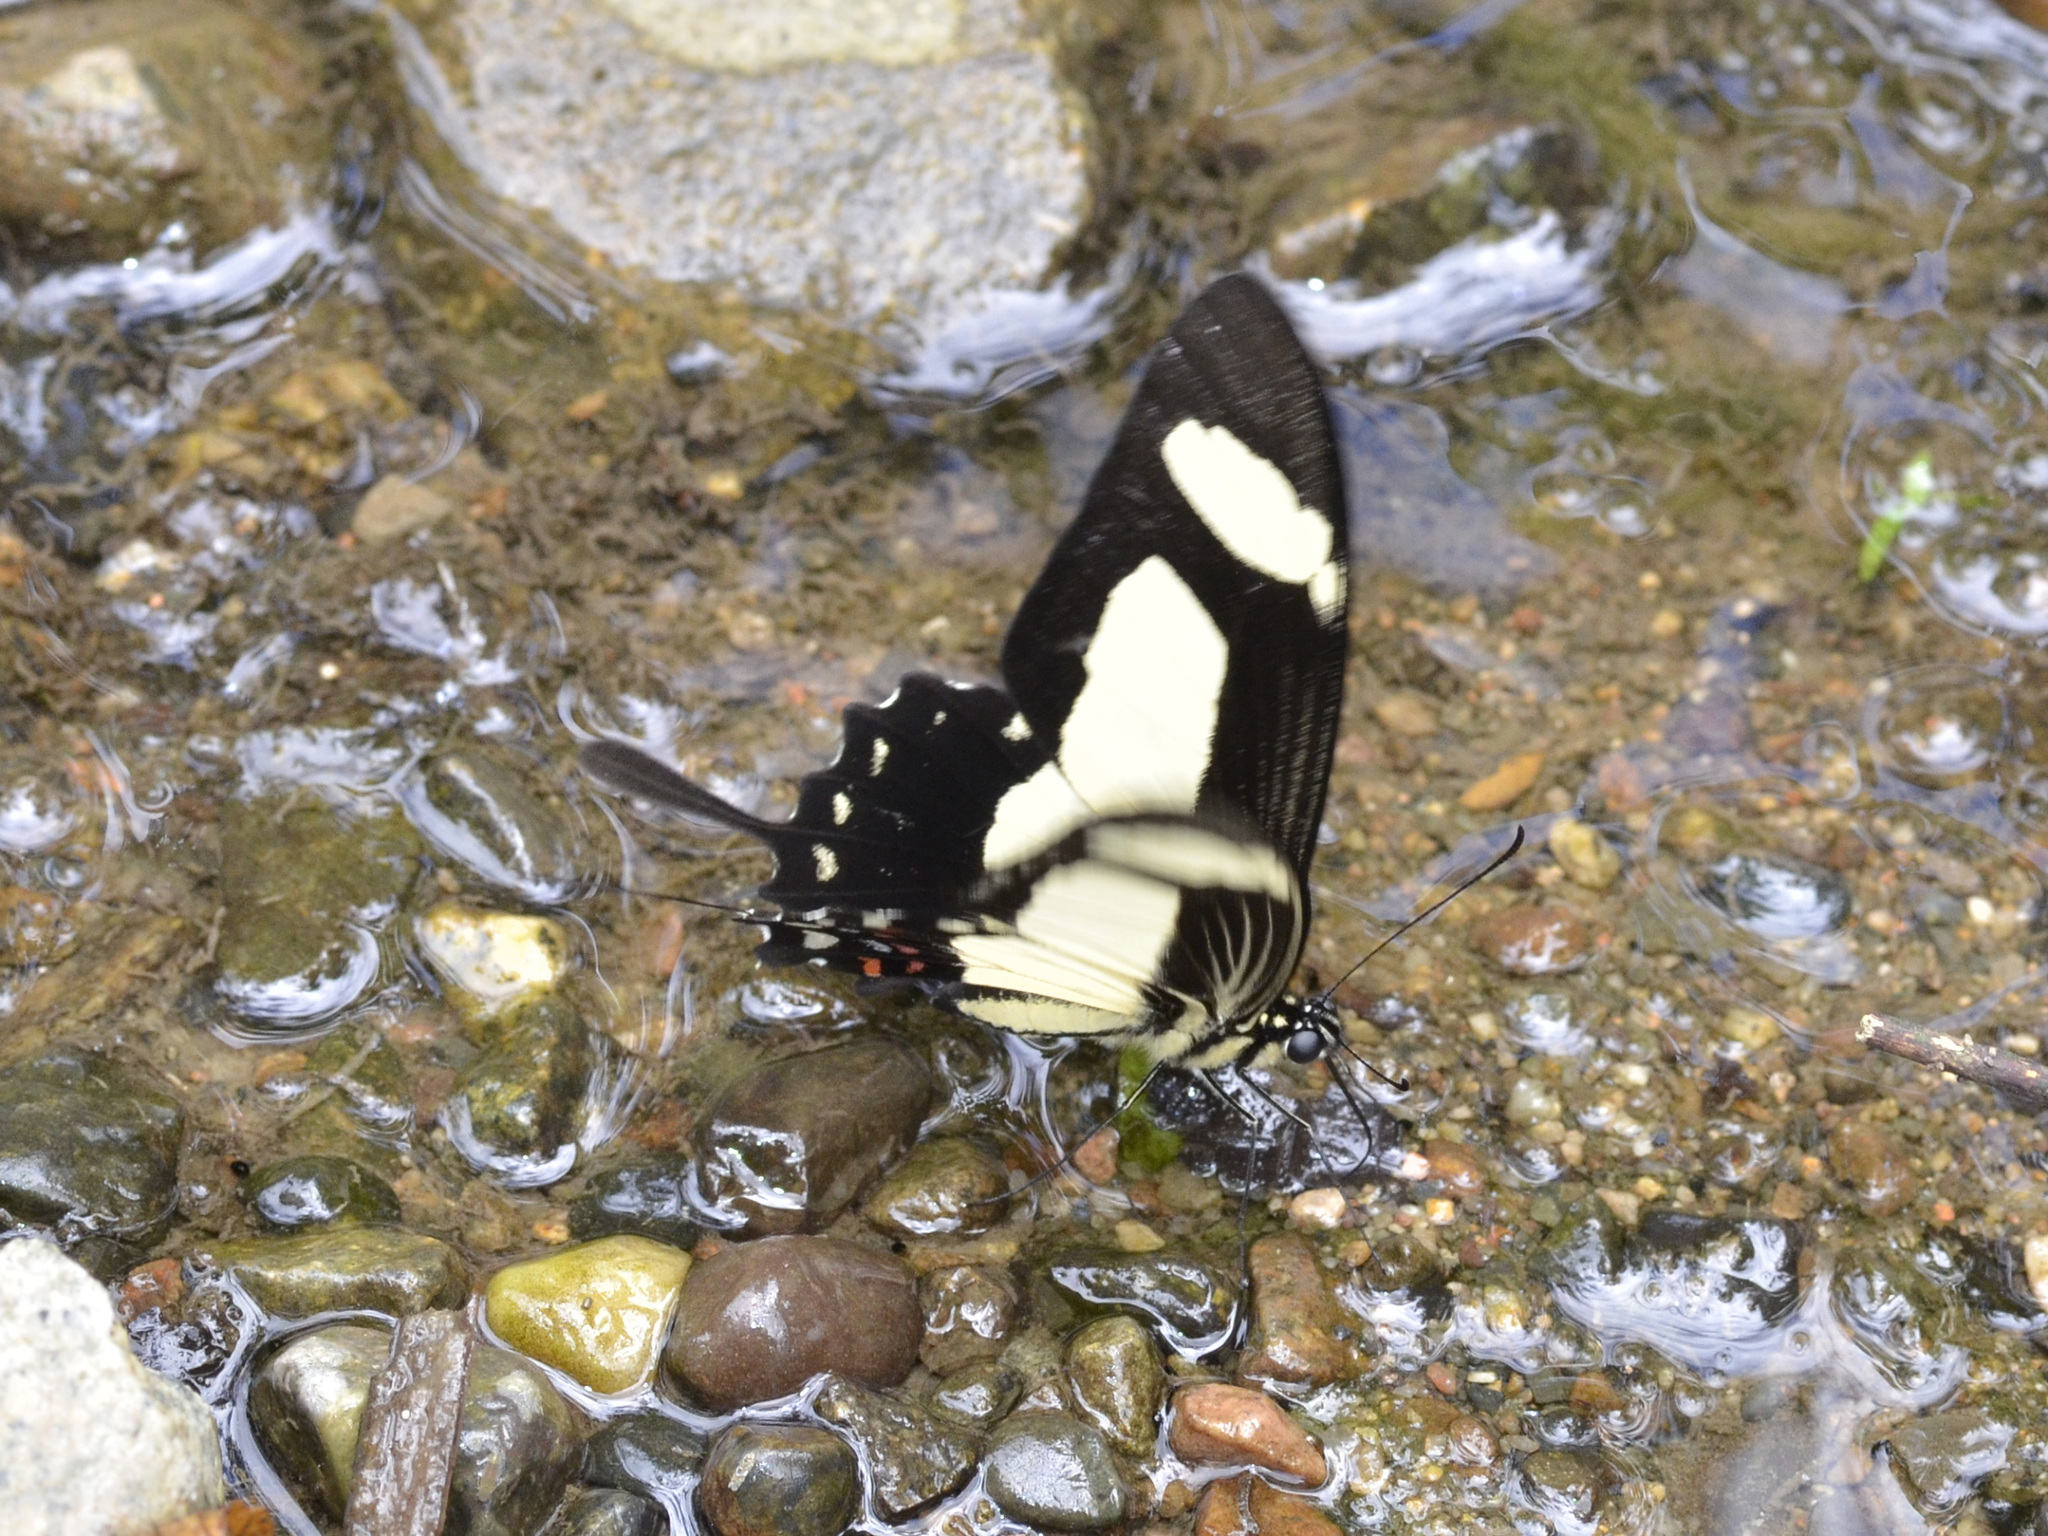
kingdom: Animalia
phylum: Arthropoda
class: Insecta
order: Lepidoptera
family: Papilionidae
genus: Papilio
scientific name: Papilio torquatus
